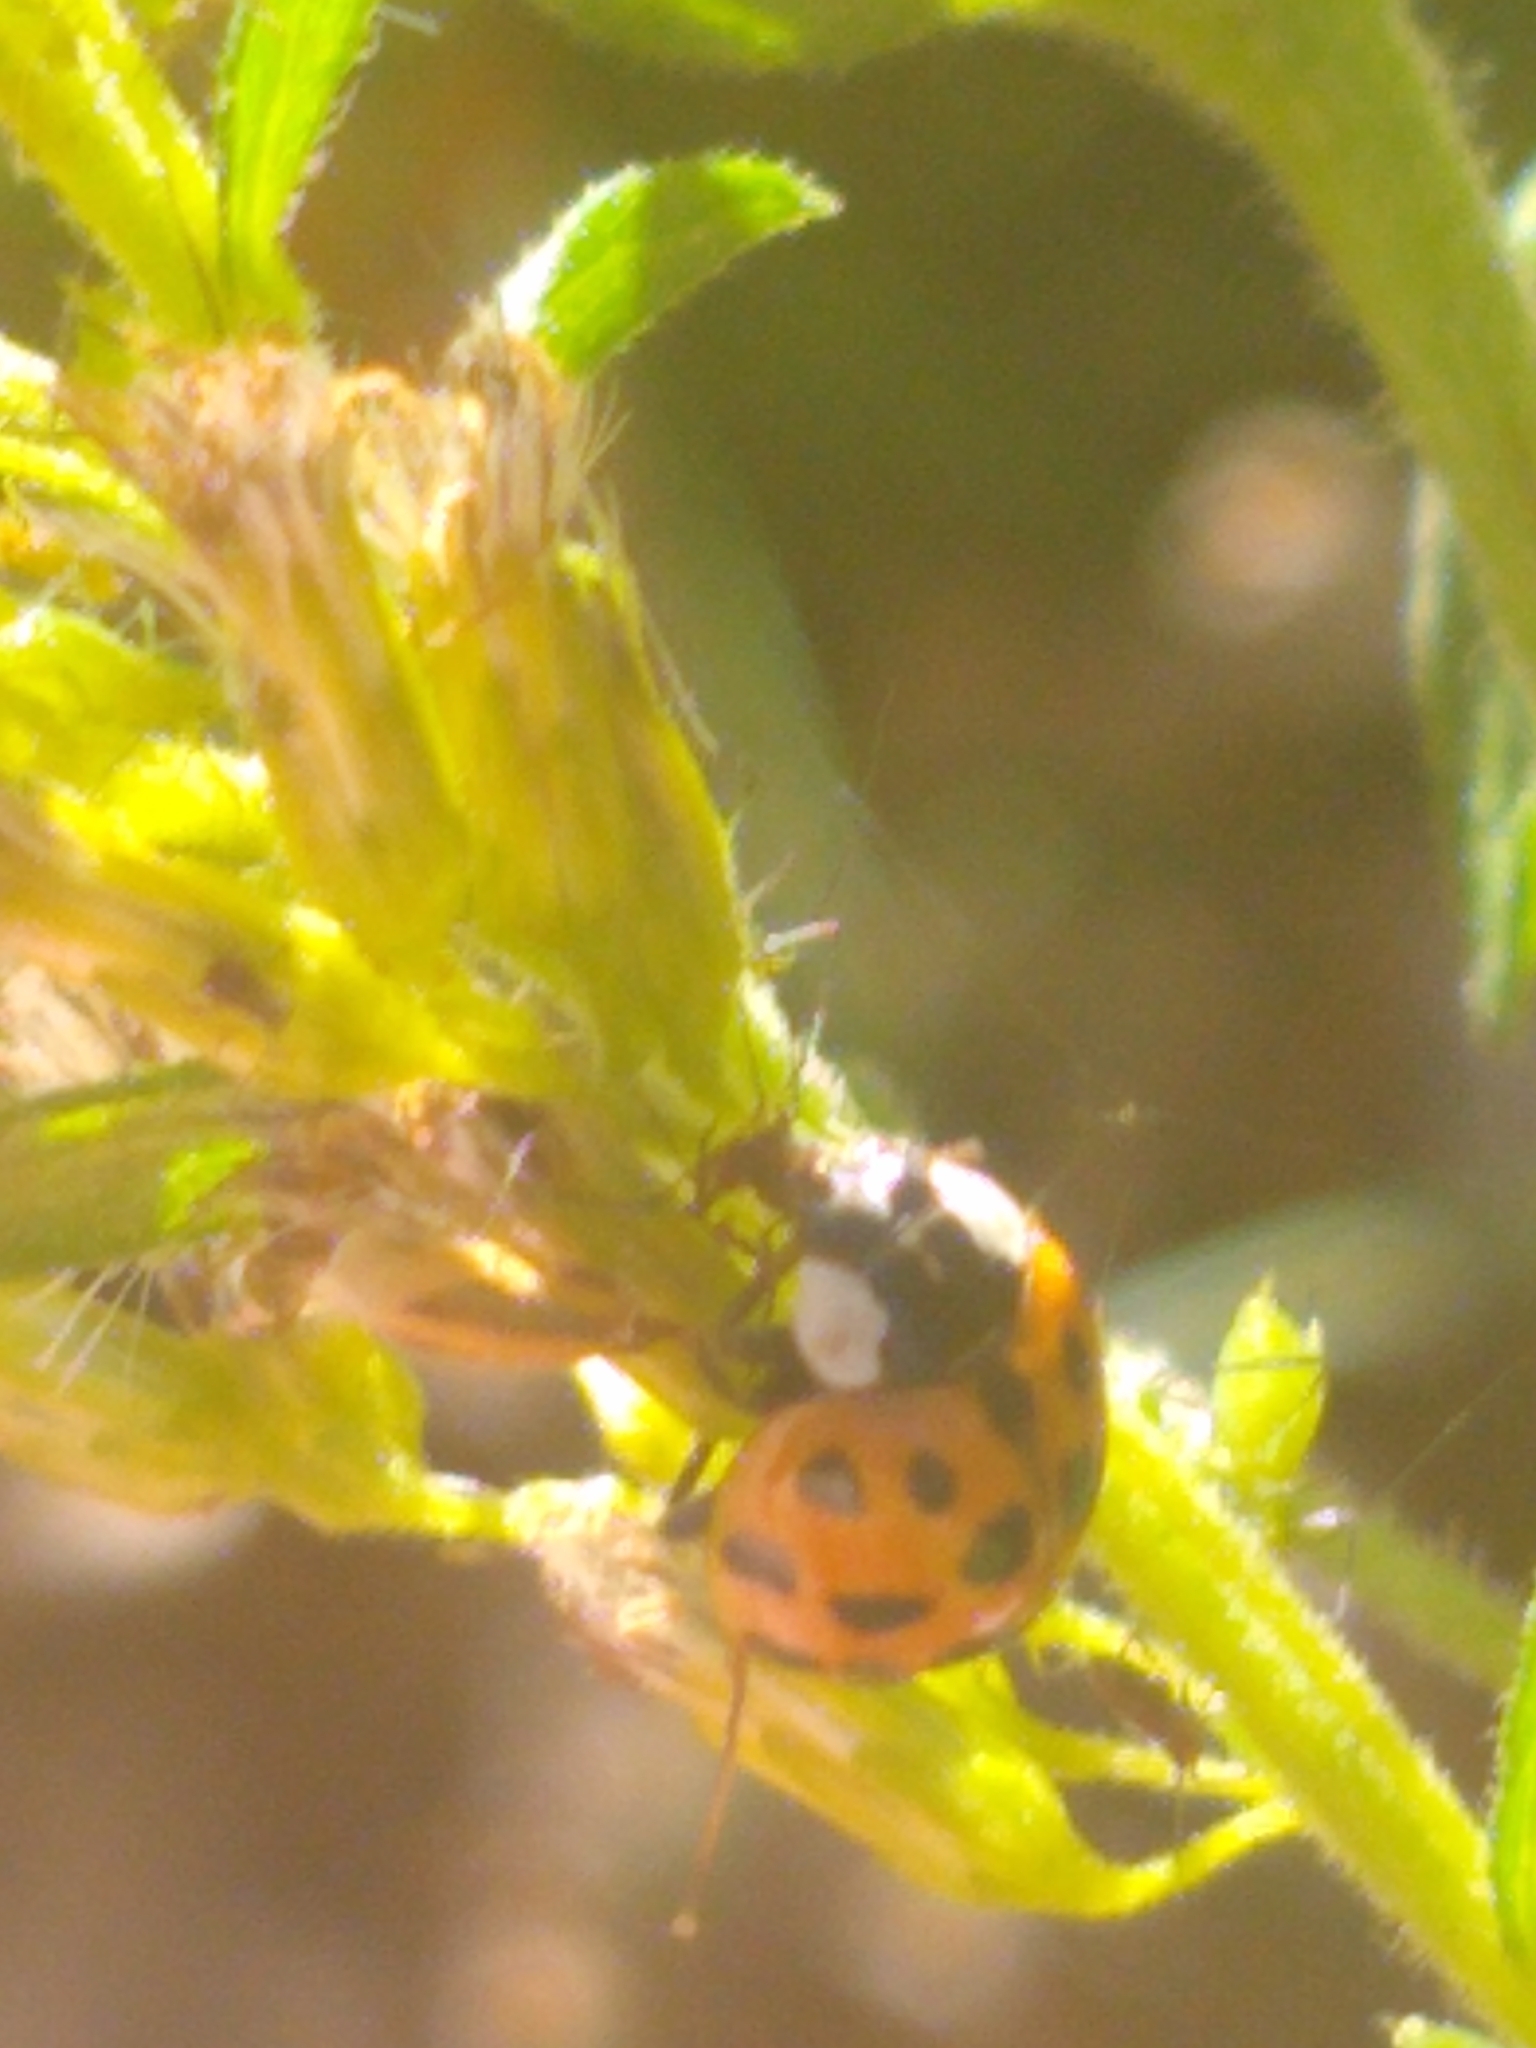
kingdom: Animalia
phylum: Arthropoda
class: Insecta
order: Coleoptera
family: Coccinellidae
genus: Harmonia
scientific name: Harmonia axyridis
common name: Harlequin ladybird
